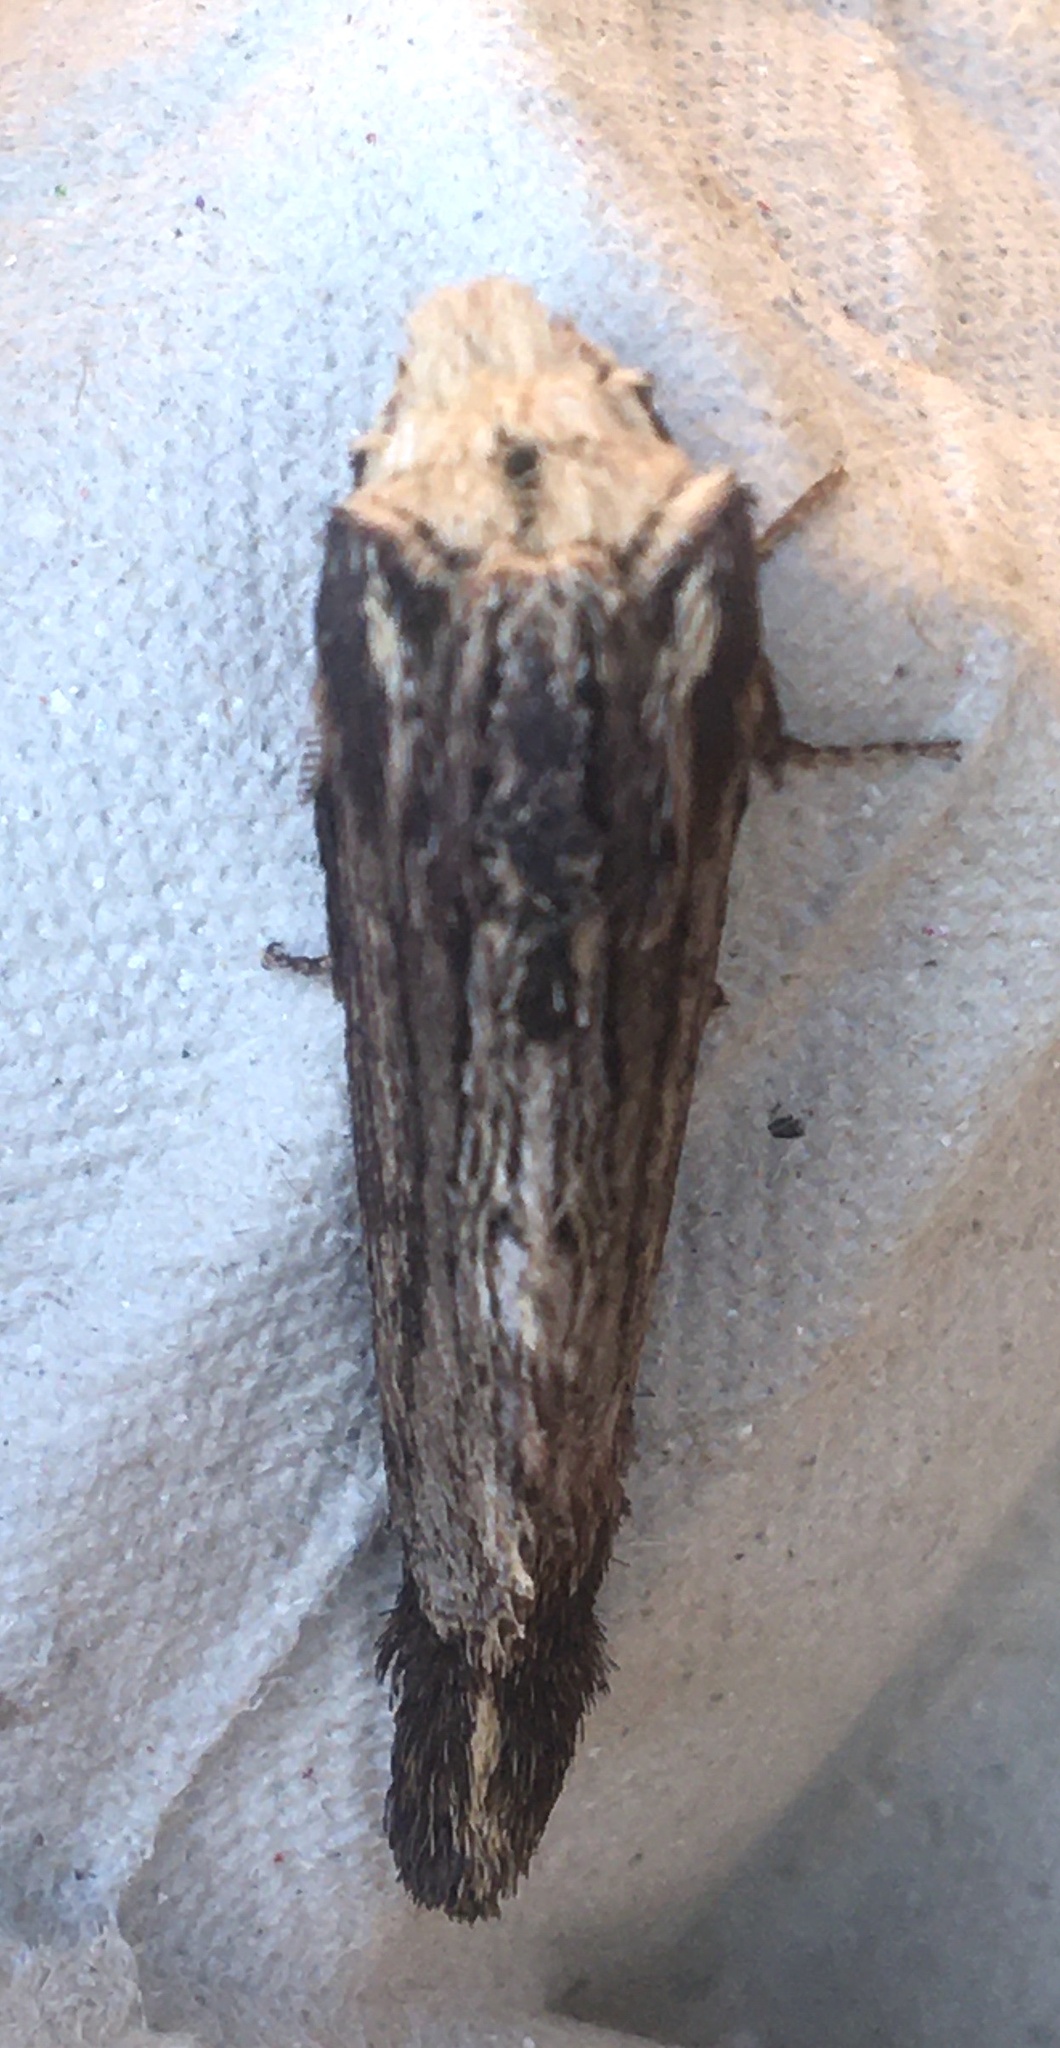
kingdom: Animalia
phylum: Arthropoda
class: Insecta
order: Lepidoptera
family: Lasiocampidae
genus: Pachypasa
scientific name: Pachypasa truncata
